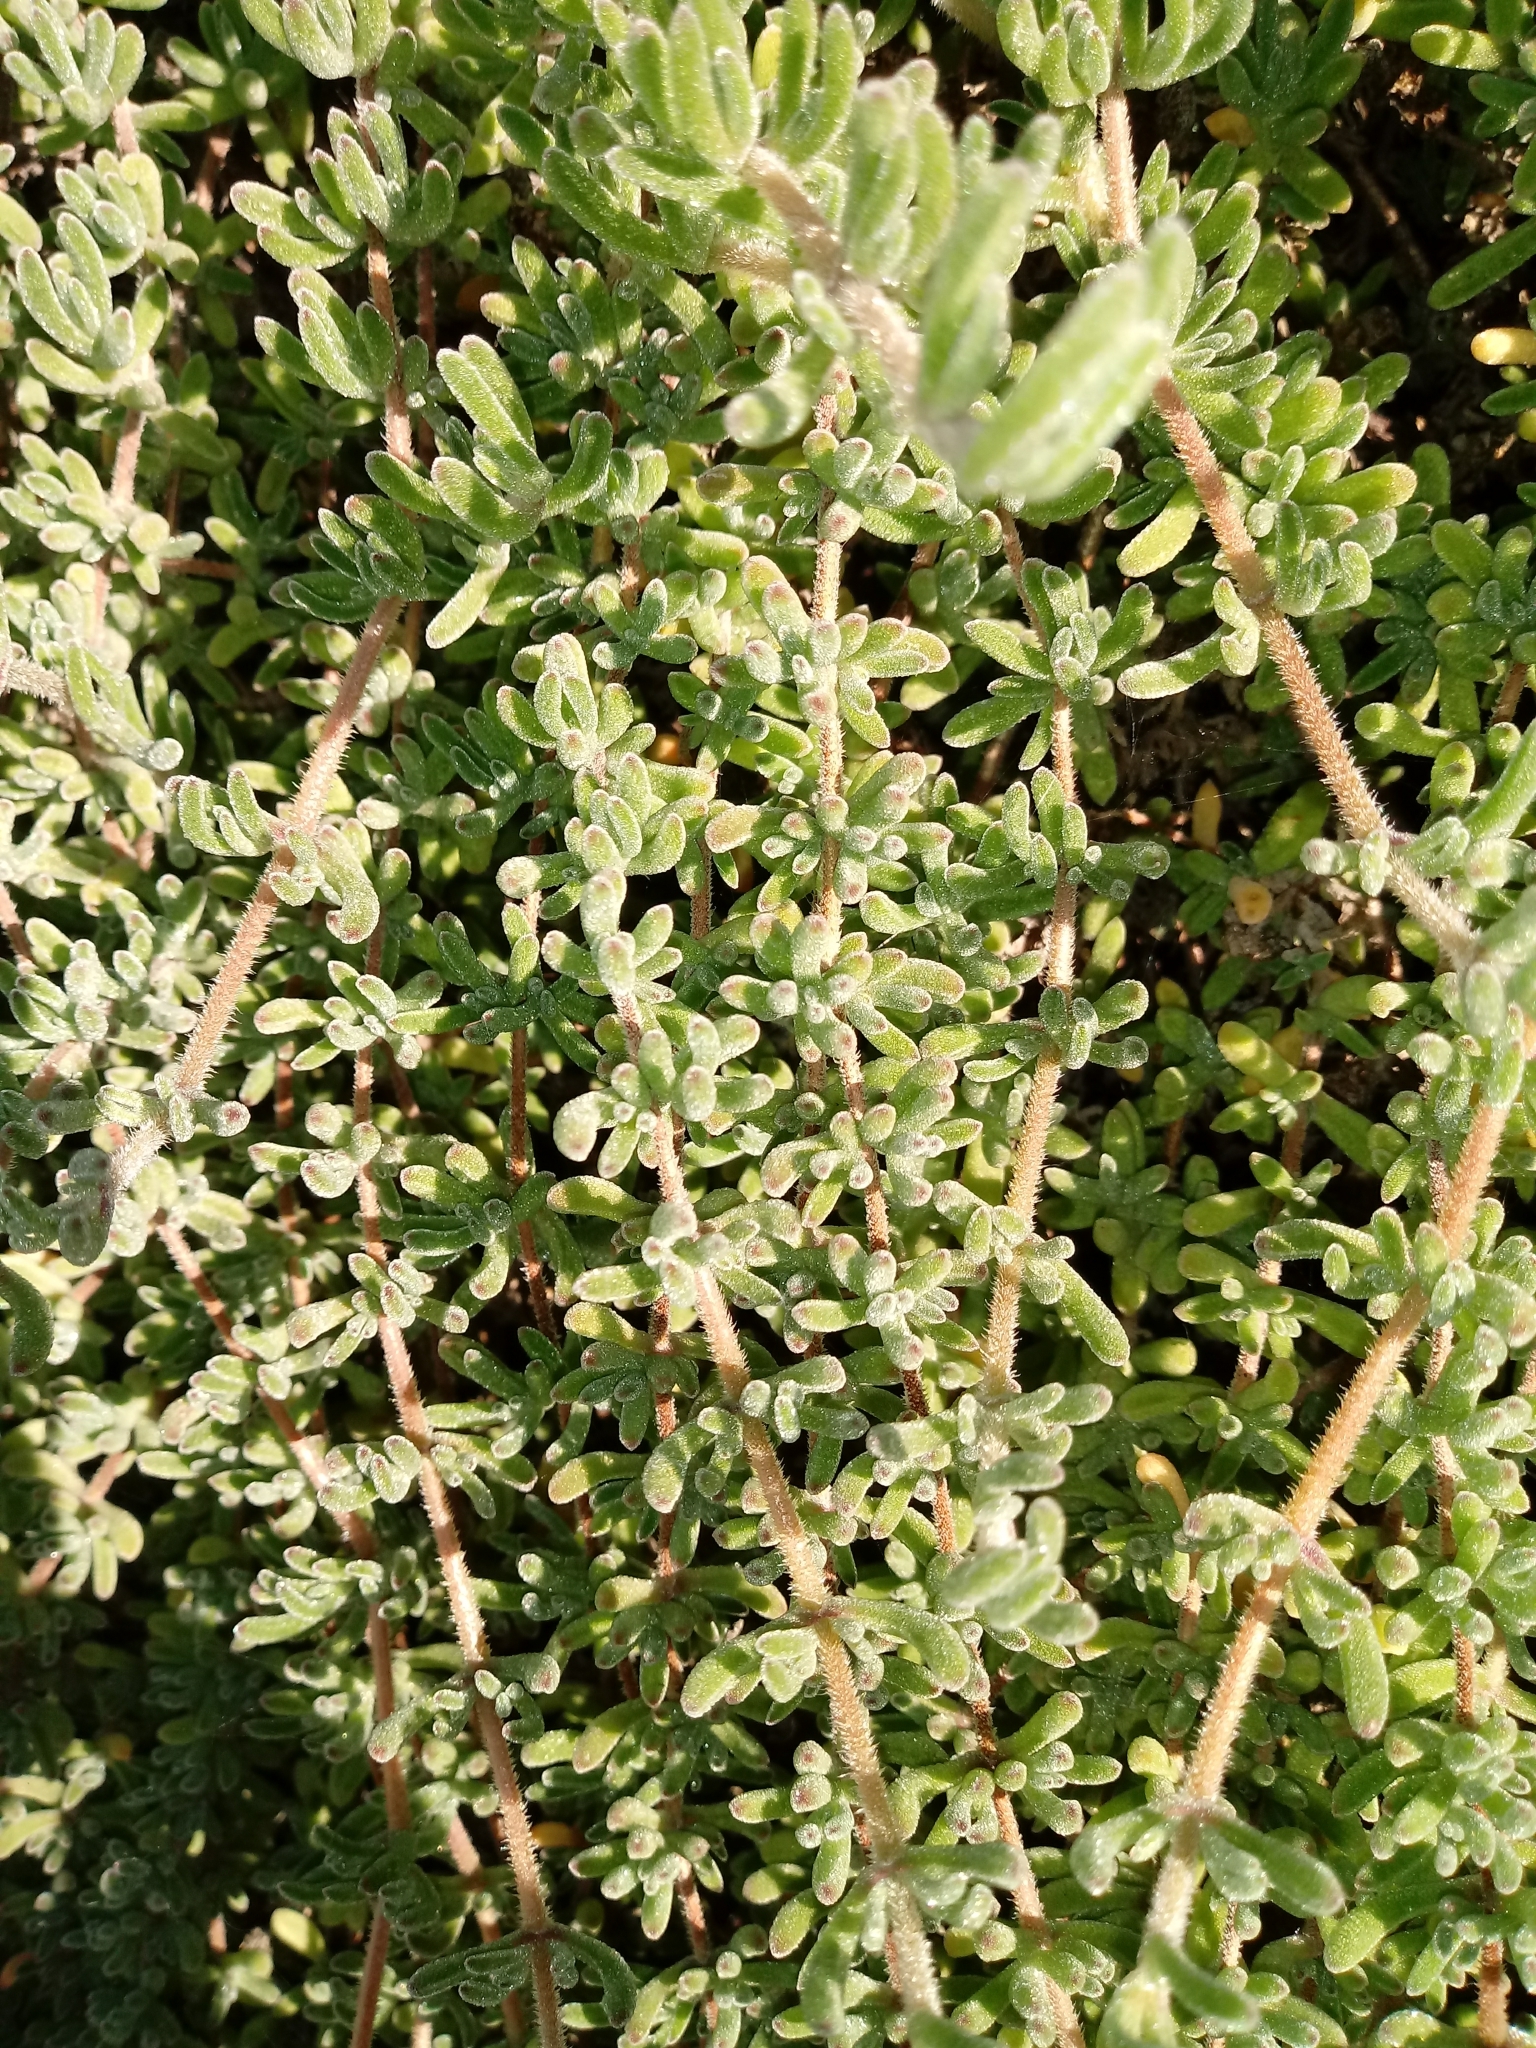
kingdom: Plantae
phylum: Tracheophyta
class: Magnoliopsida
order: Caryophyllales
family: Aizoaceae
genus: Drosanthemum
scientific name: Drosanthemum floribundum
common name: Pale dewplant
